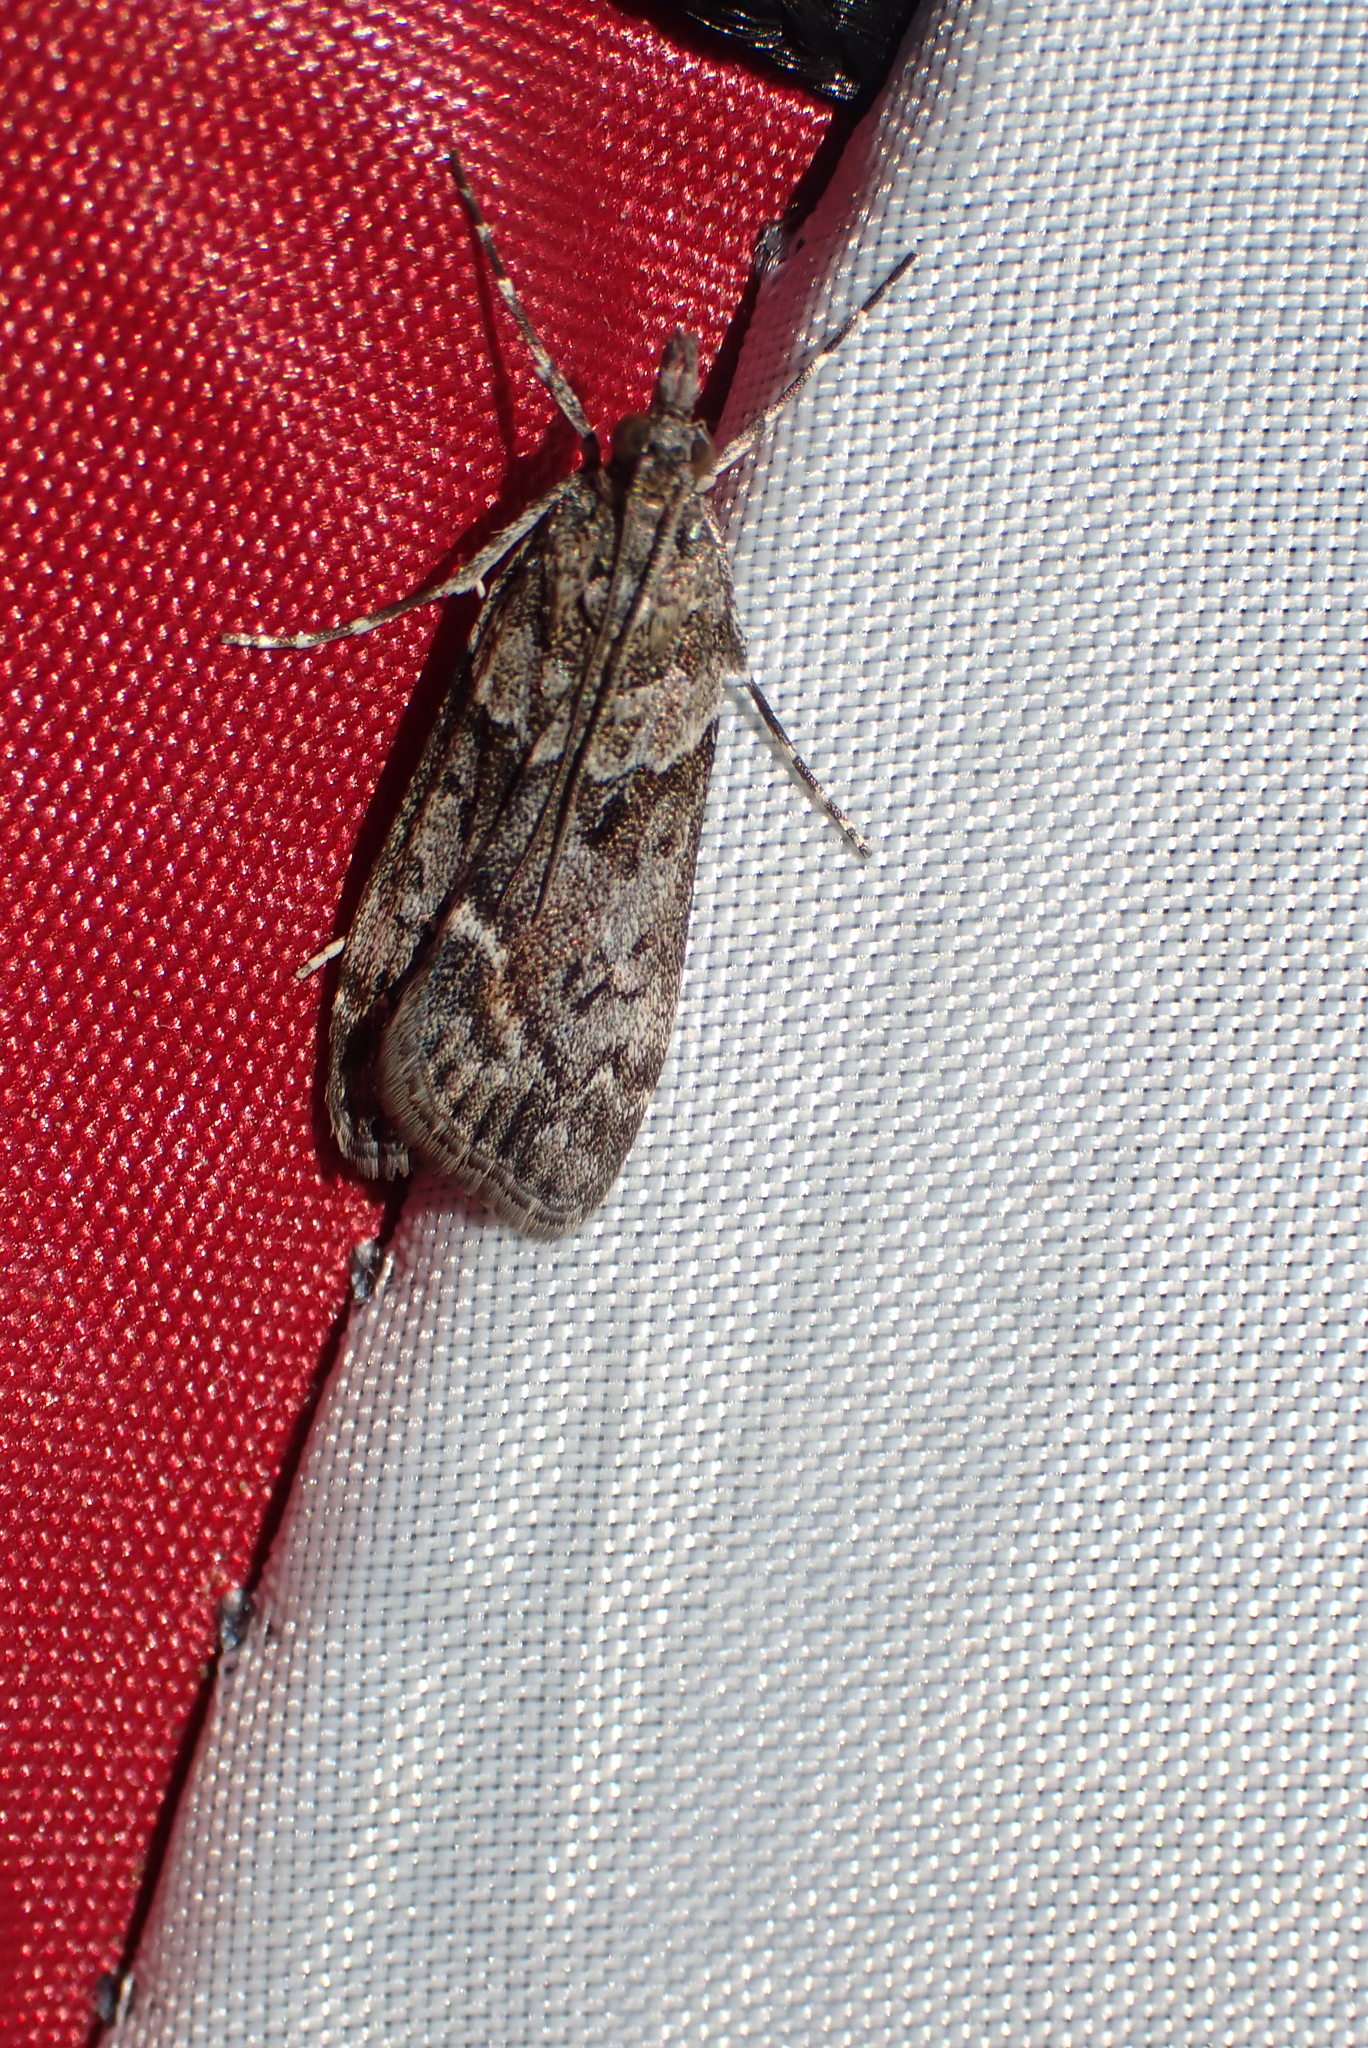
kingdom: Animalia
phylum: Arthropoda
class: Insecta
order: Lepidoptera
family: Crambidae
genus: Eudonia
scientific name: Eudonia submarginalis
